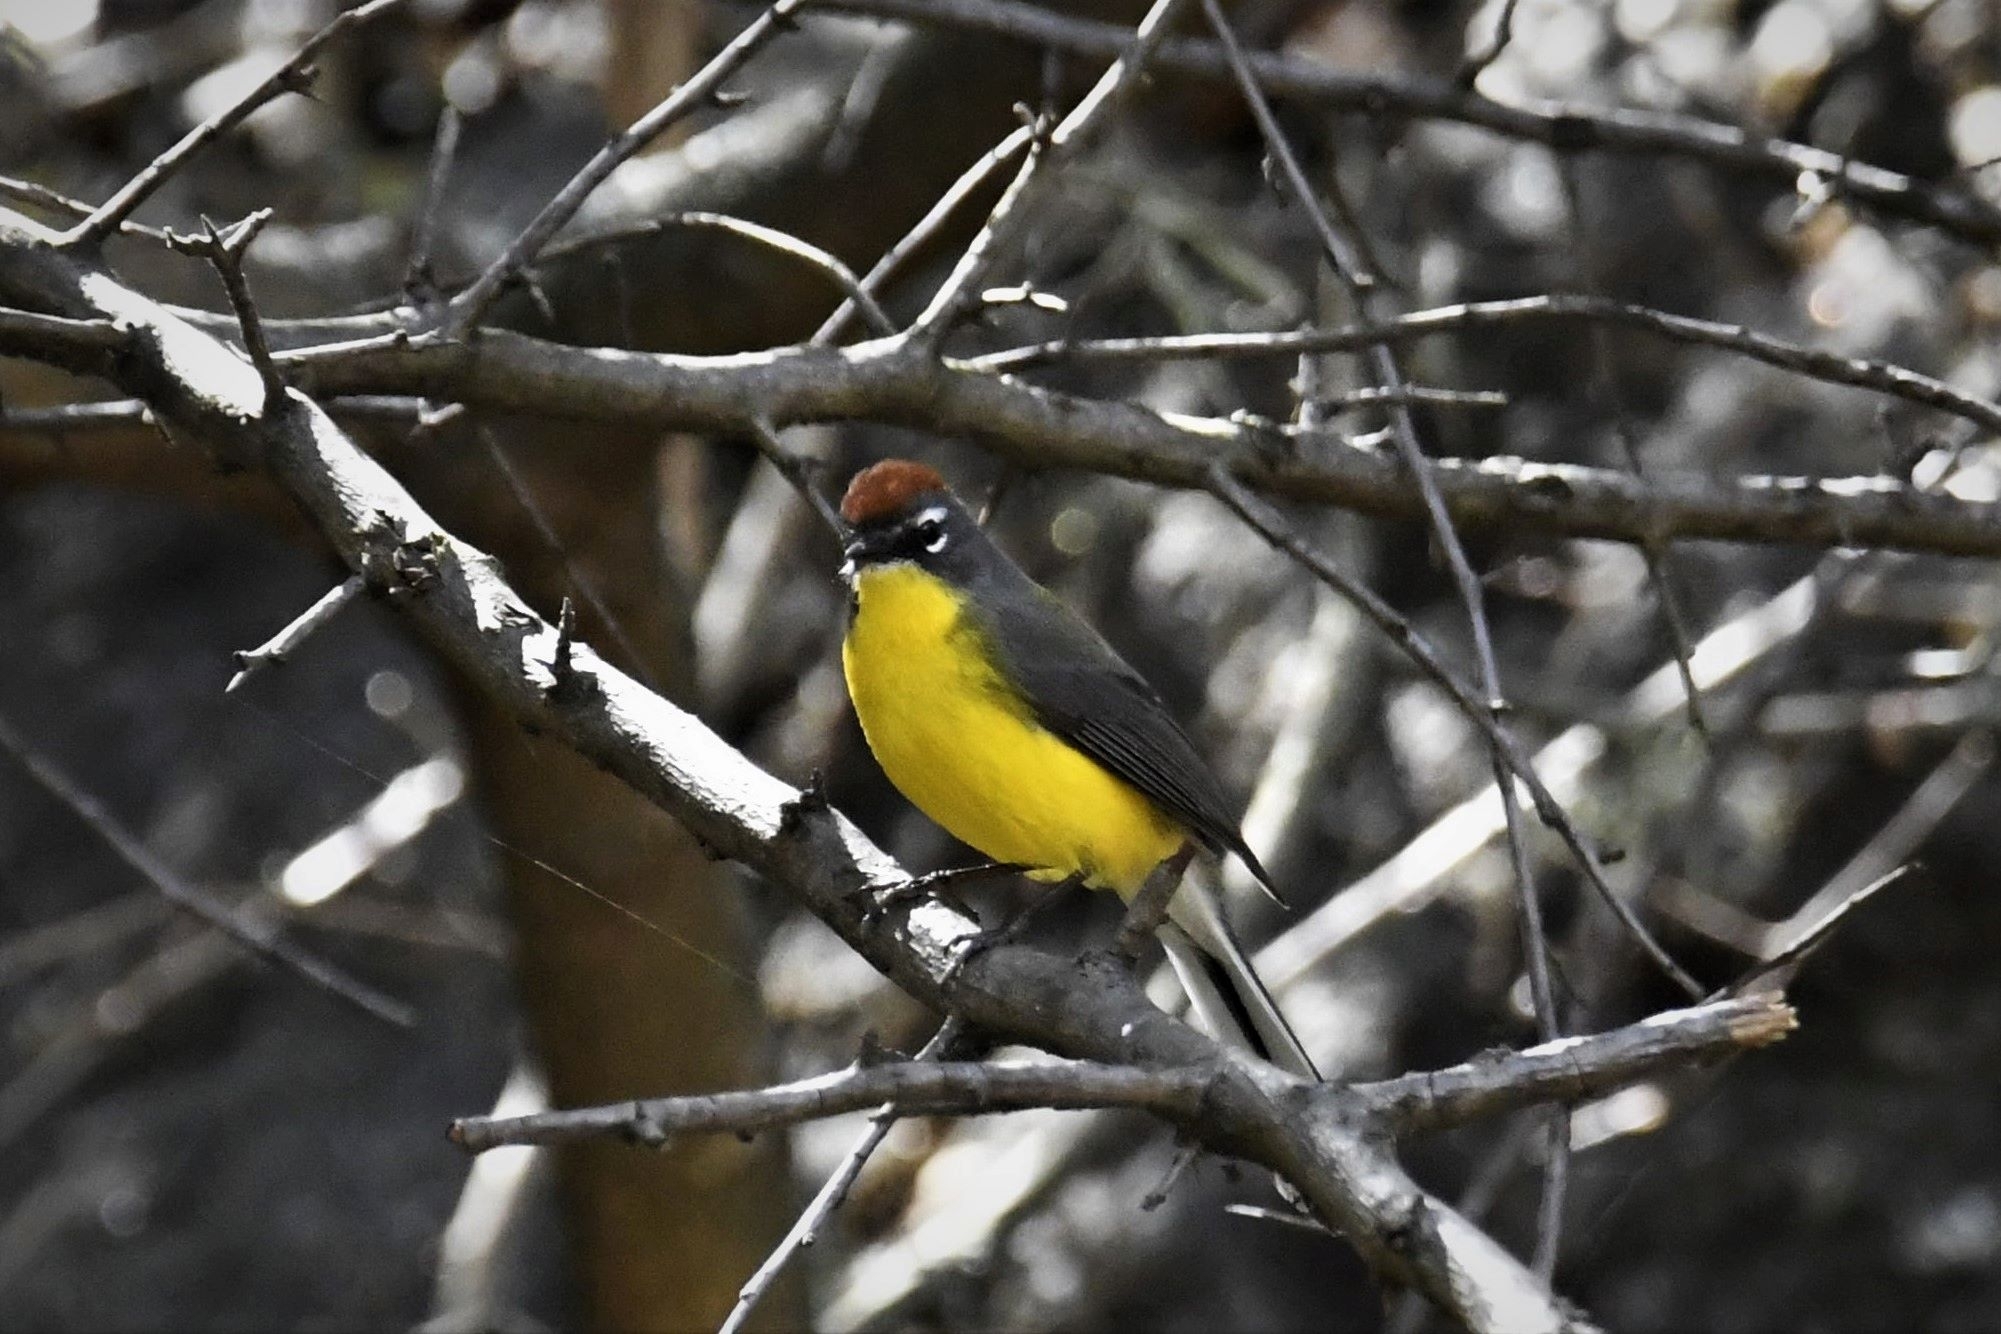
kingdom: Animalia
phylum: Chordata
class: Aves
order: Passeriformes
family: Parulidae
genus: Myioborus
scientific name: Myioborus brunniceps
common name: Brown-capped whitestart
